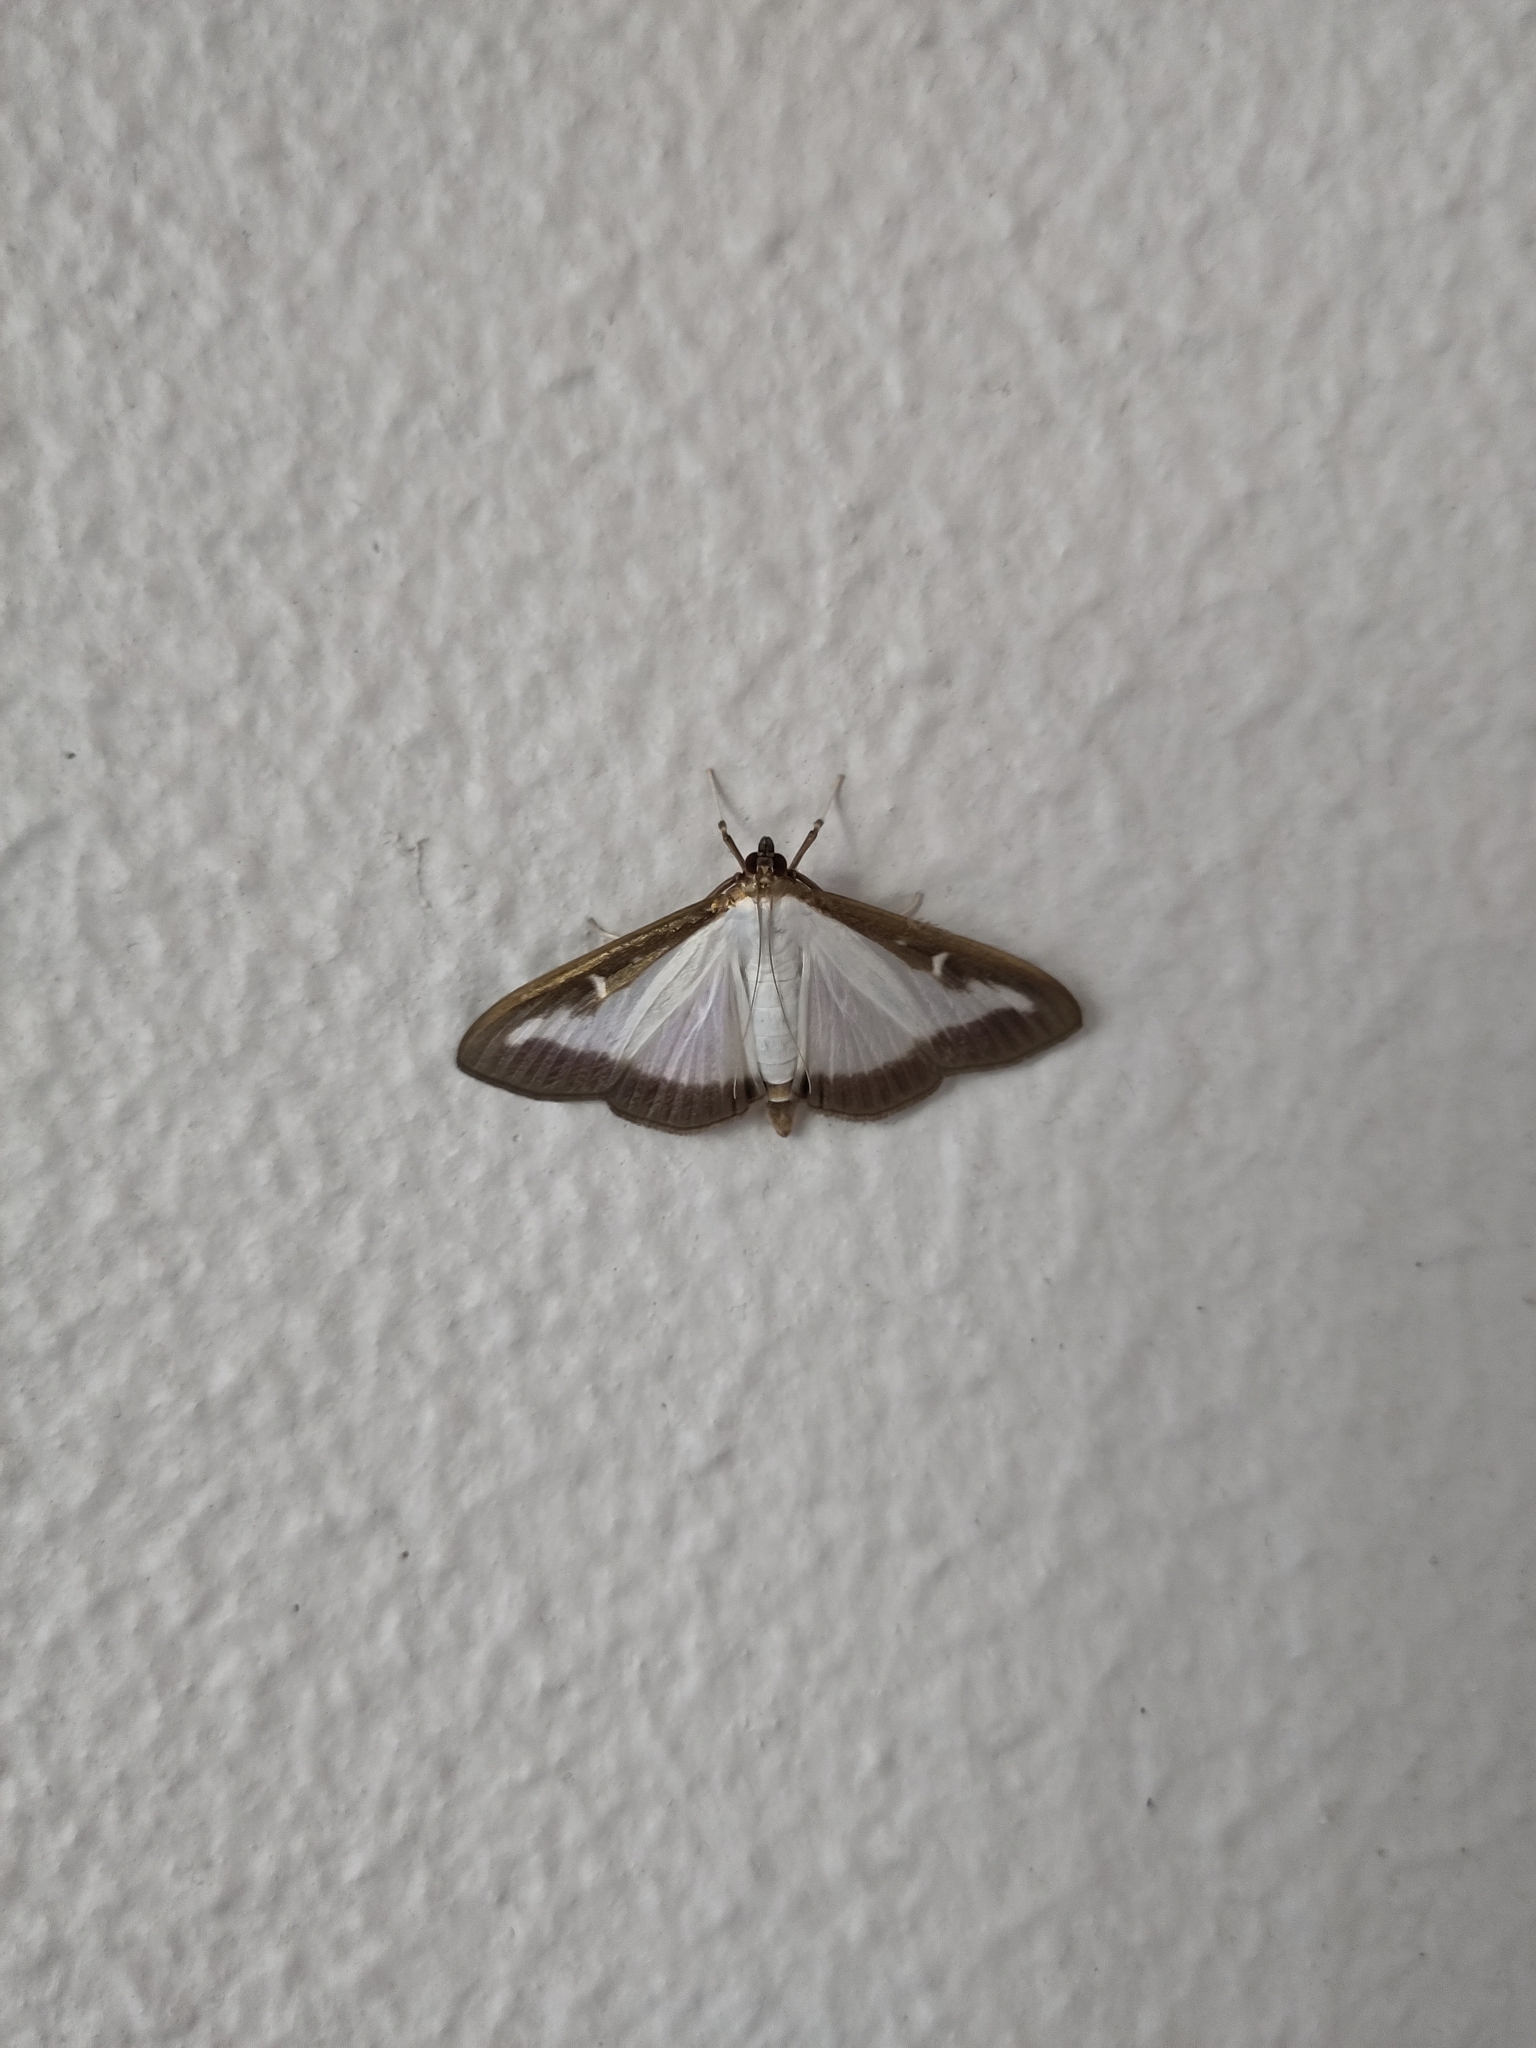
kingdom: Animalia
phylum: Arthropoda
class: Insecta
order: Lepidoptera
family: Crambidae
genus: Cydalima
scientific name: Cydalima perspectalis
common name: Box tree moth
